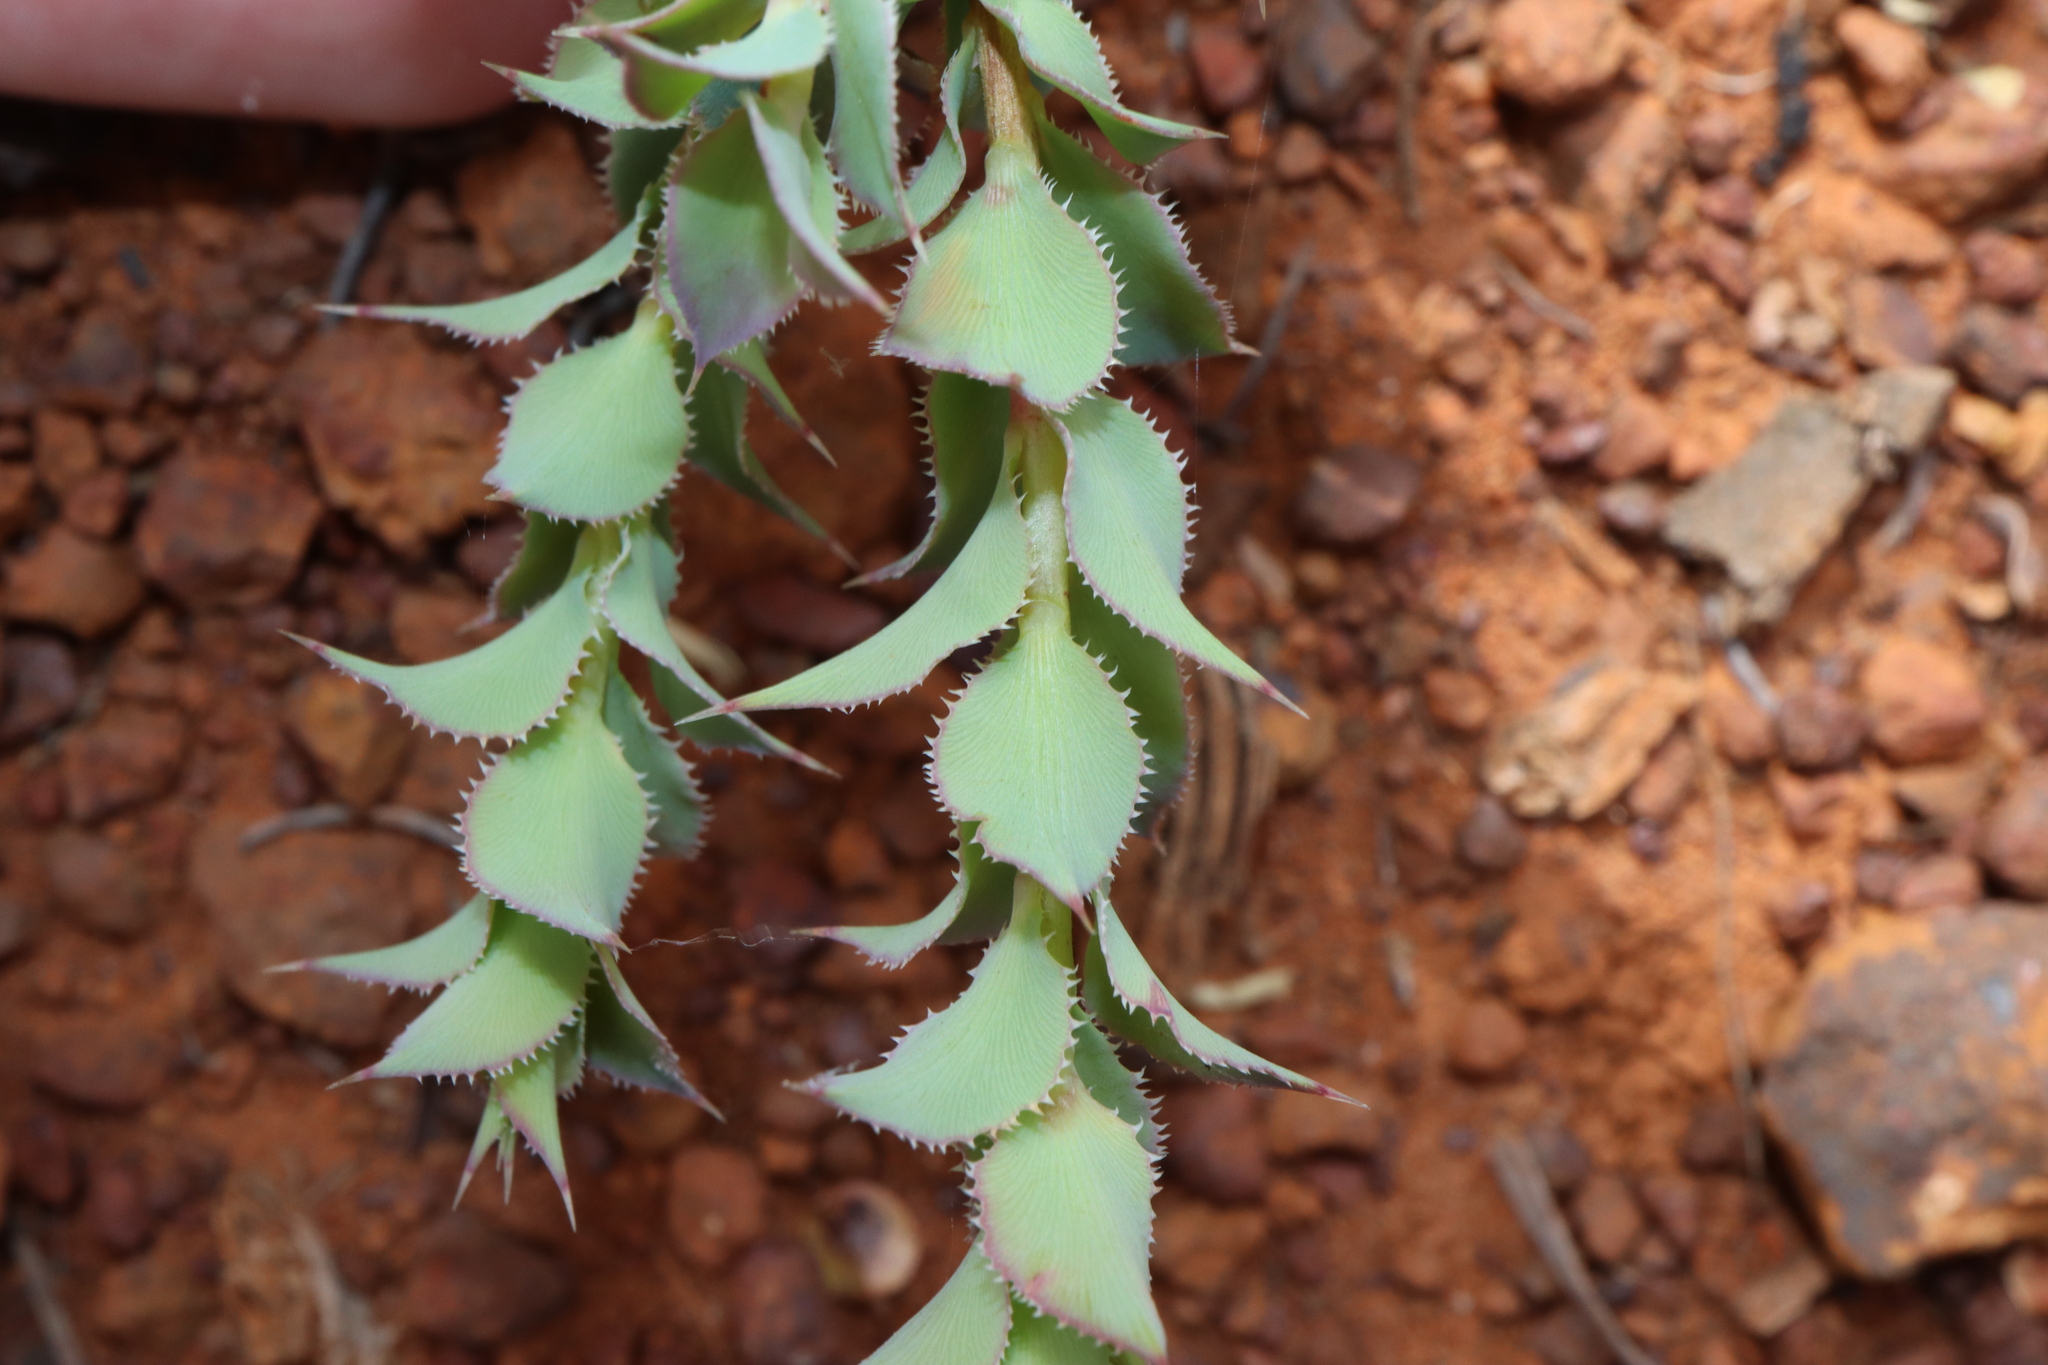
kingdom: Plantae
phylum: Tracheophyta
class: Magnoliopsida
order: Ericales
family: Ericaceae
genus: Styphelia
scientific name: Styphelia serratifolia
